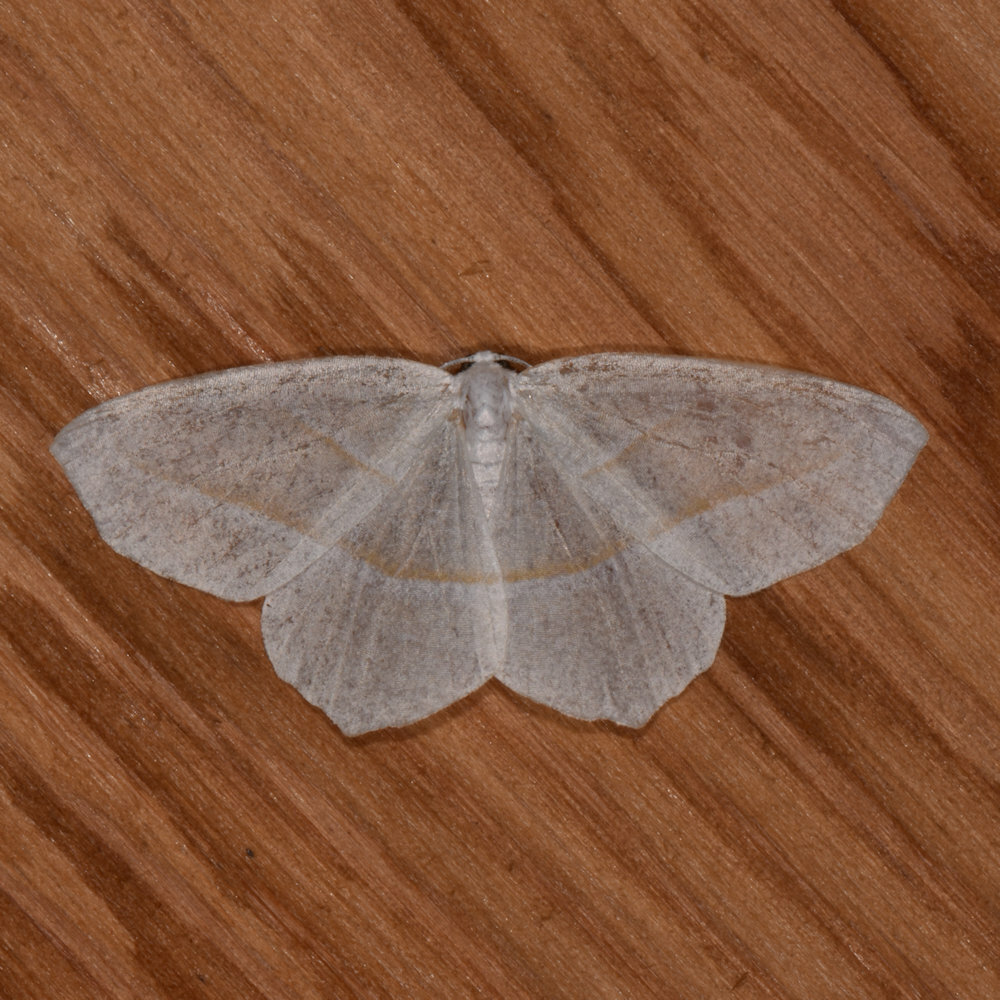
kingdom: Animalia
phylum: Arthropoda
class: Insecta
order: Lepidoptera
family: Geometridae
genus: Campaea
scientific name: Campaea perlata
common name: Fringed looper
